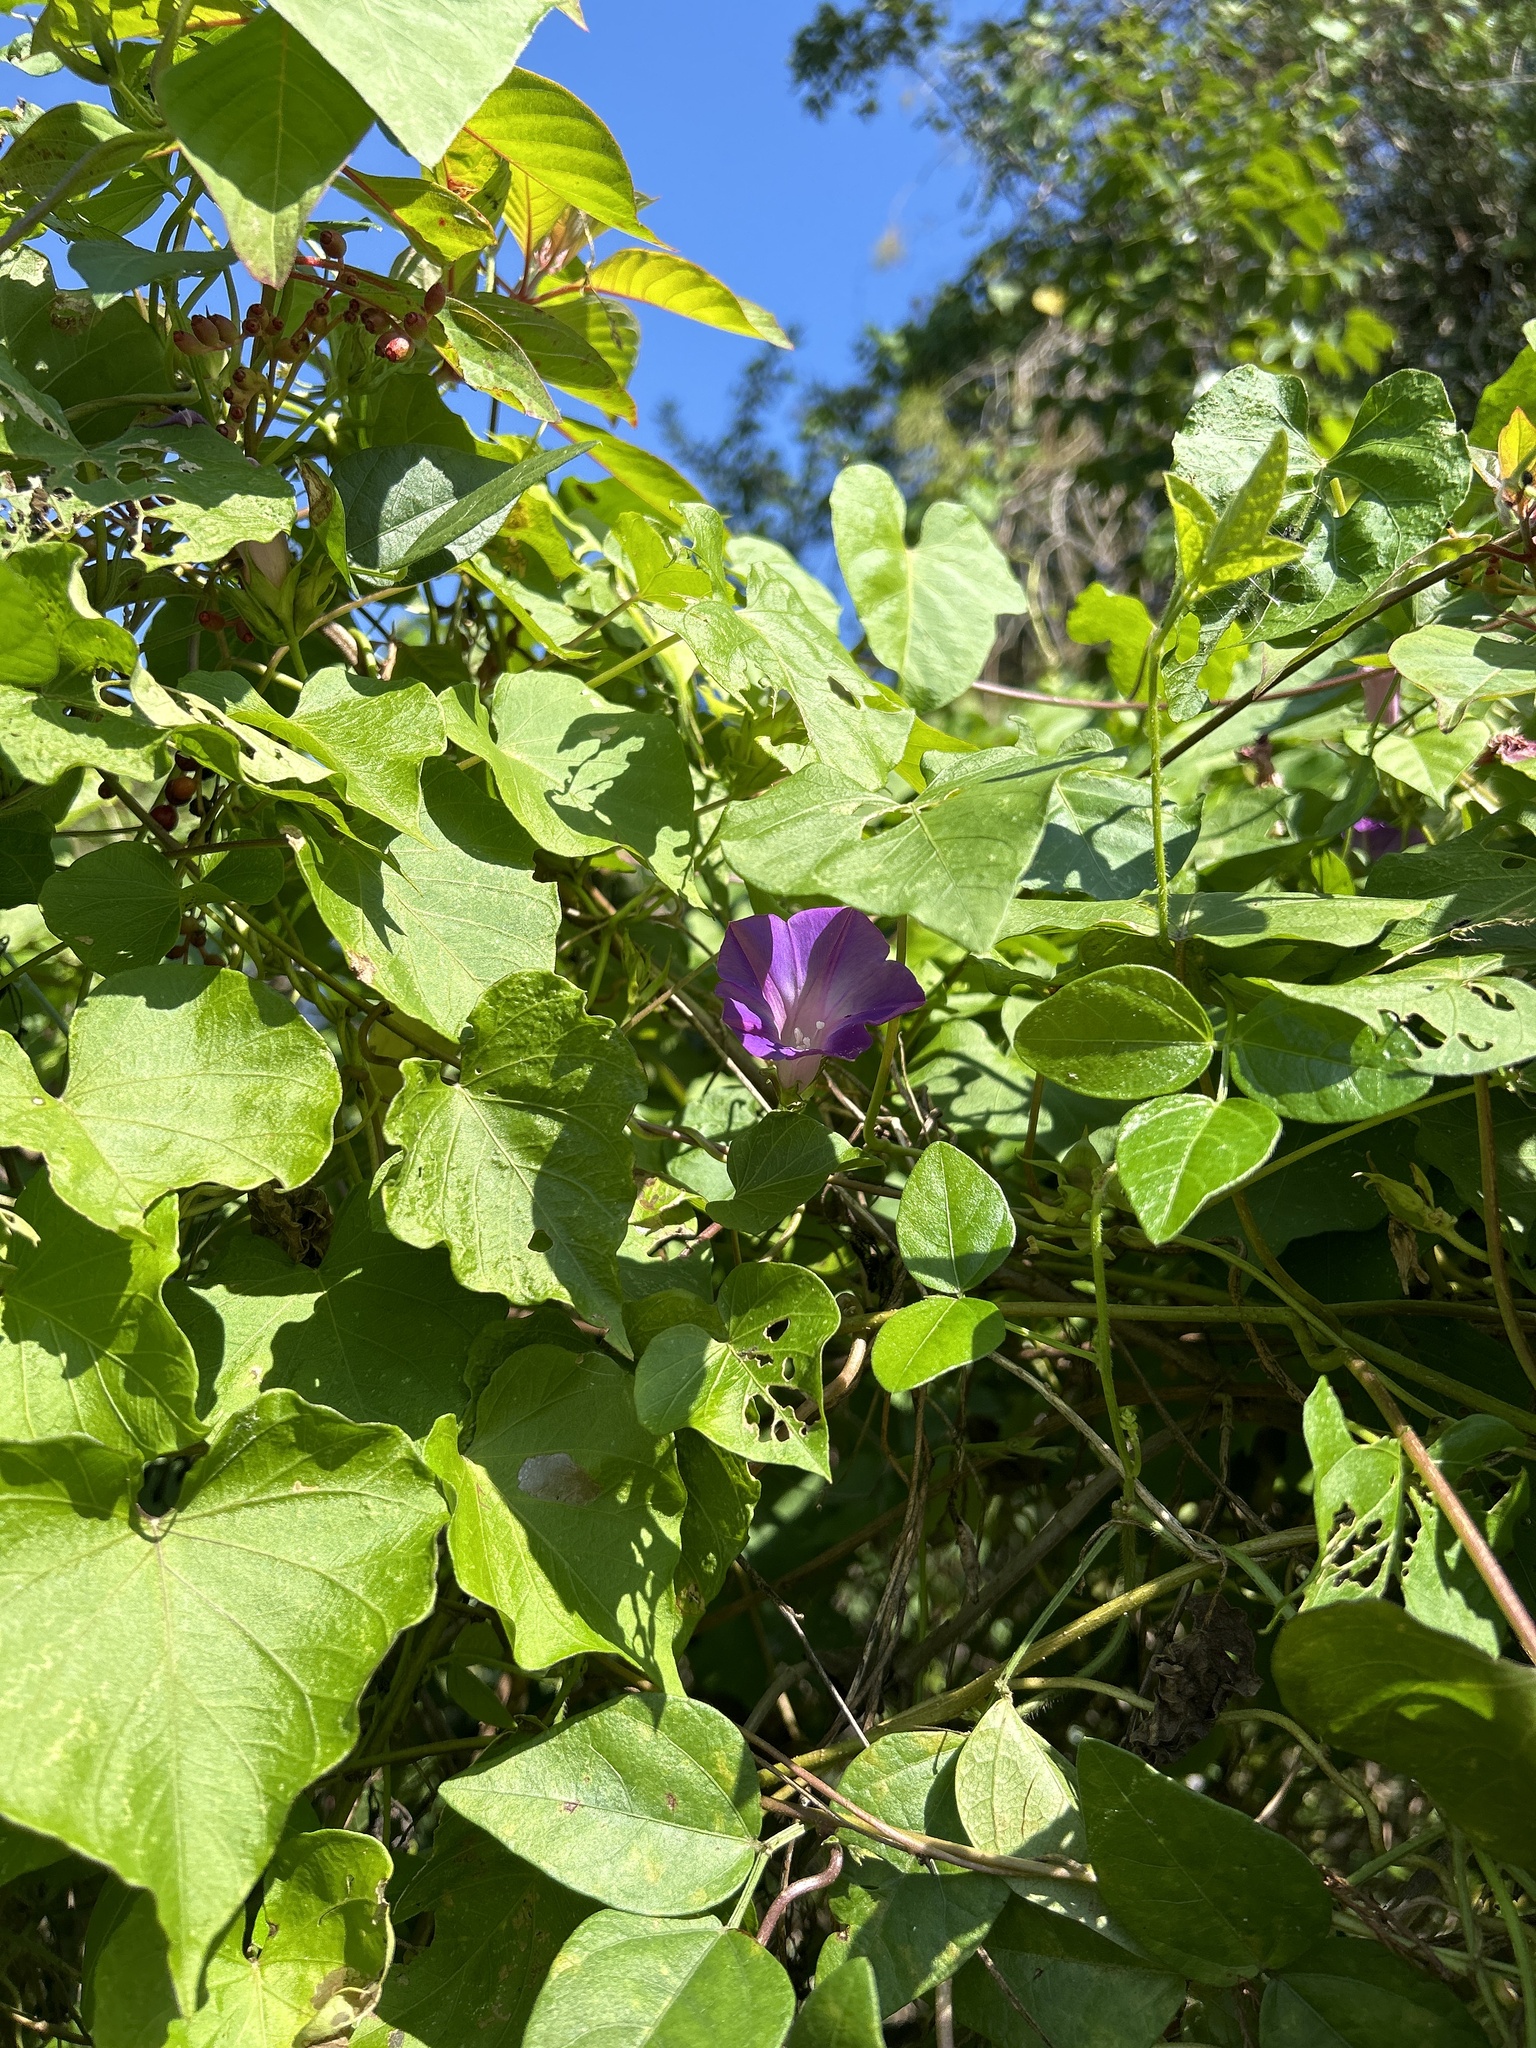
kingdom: Plantae
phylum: Tracheophyta
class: Magnoliopsida
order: Solanales
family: Convolvulaceae
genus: Ipomoea
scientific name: Ipomoea indica
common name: Blue dawnflower
